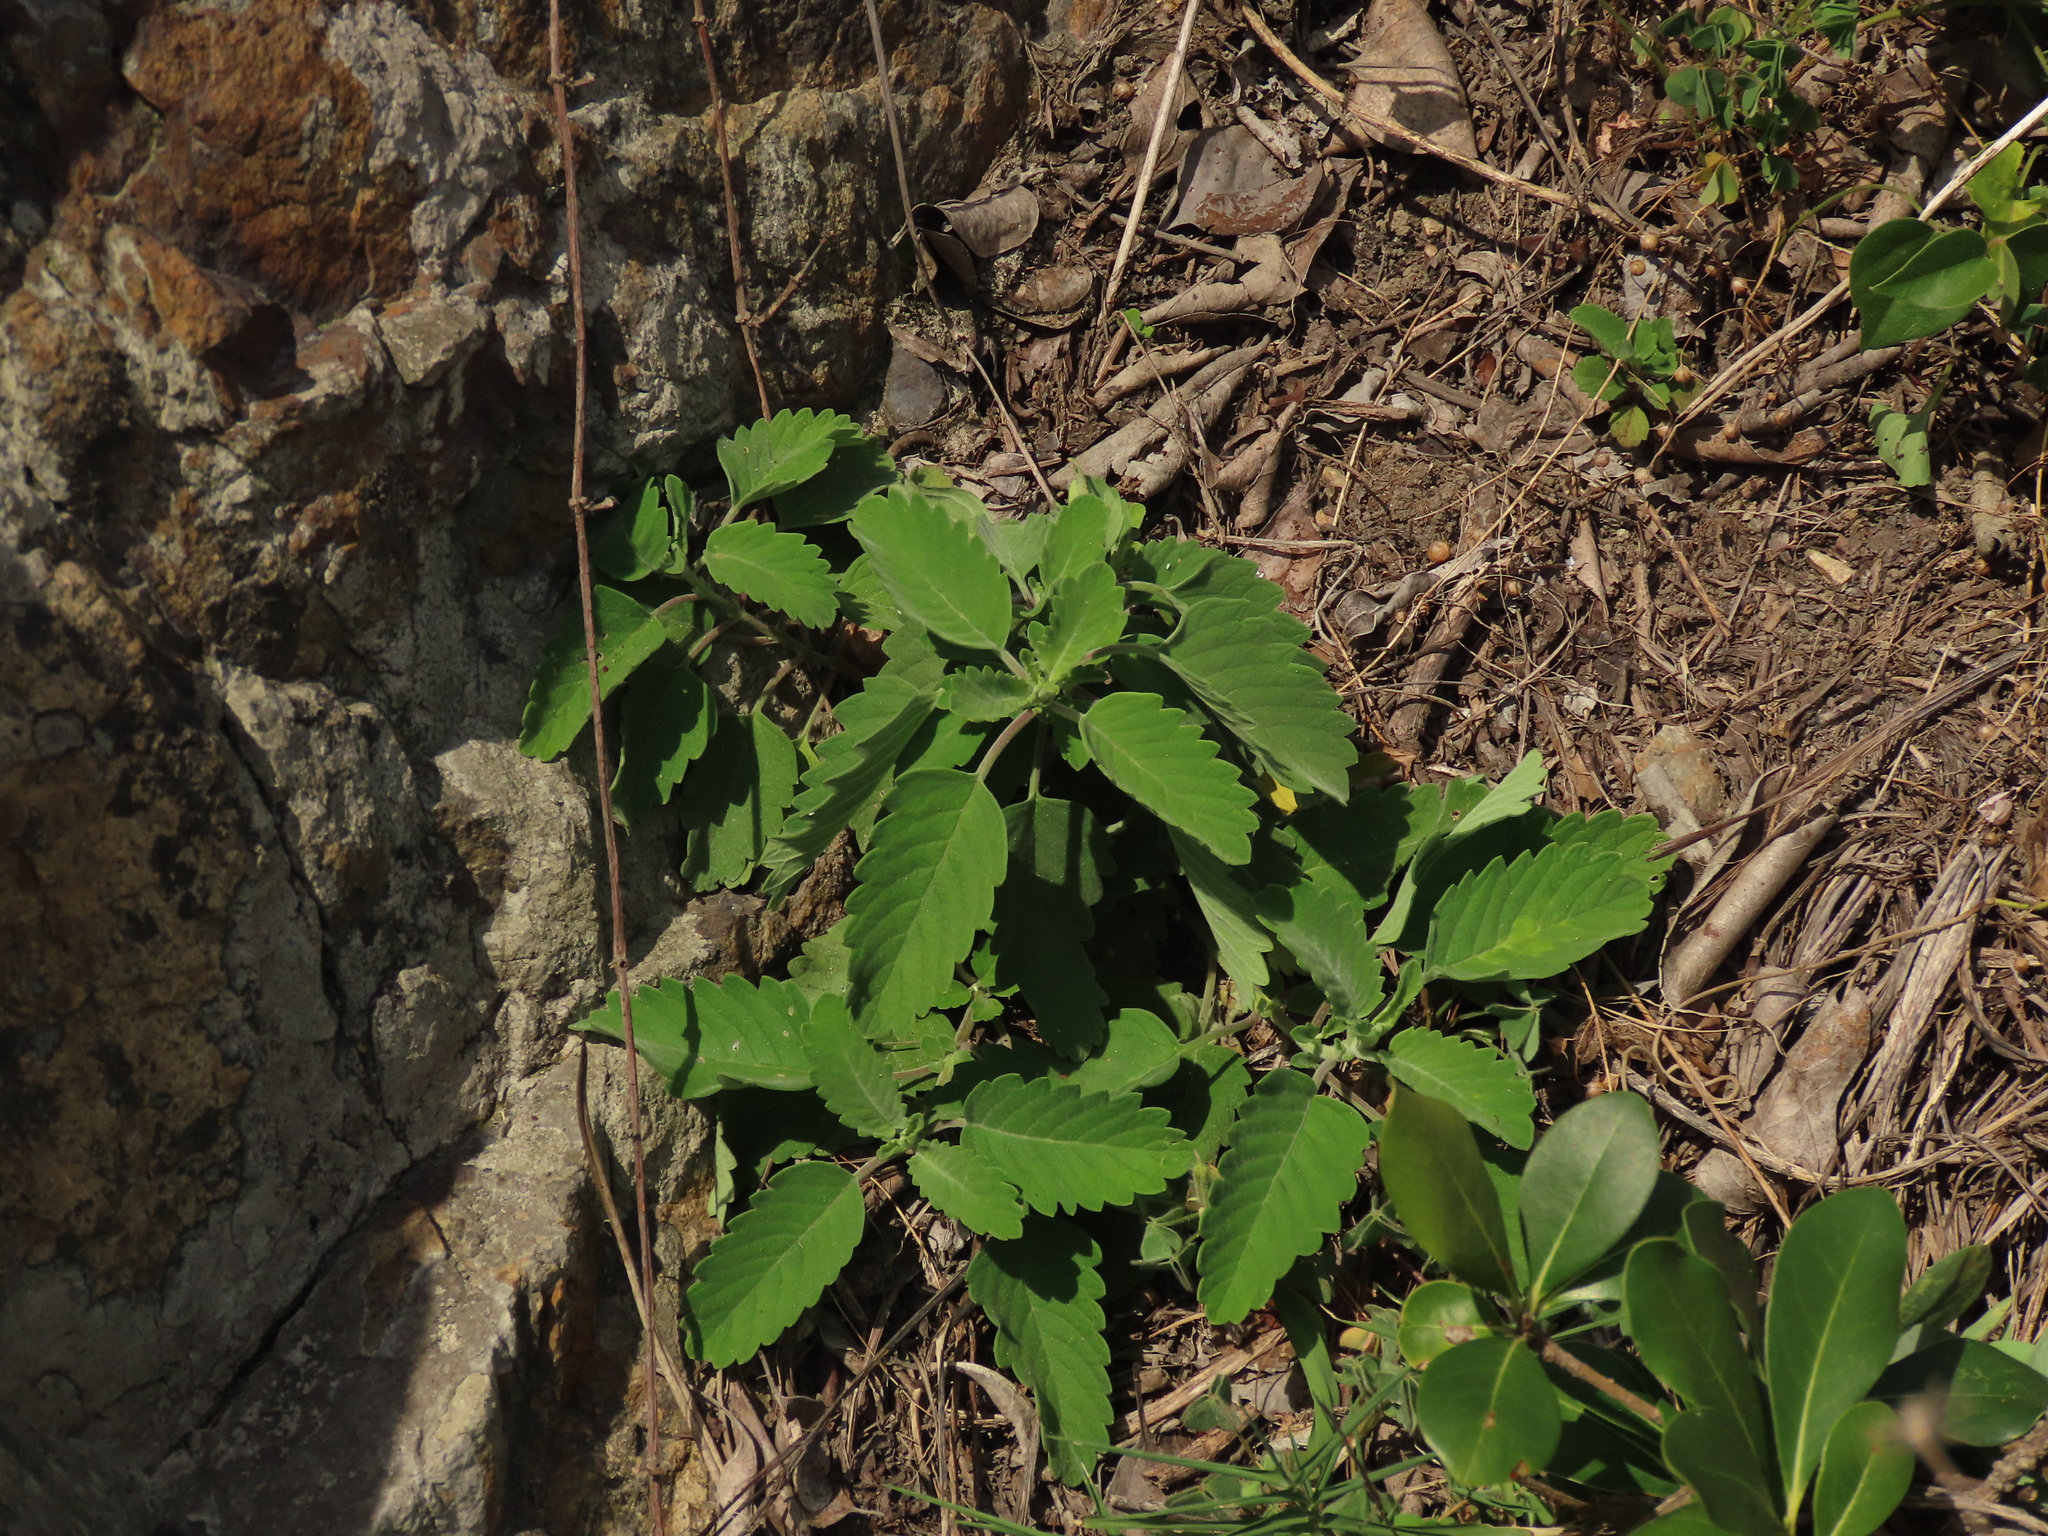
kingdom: Plantae
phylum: Tracheophyta
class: Magnoliopsida
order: Lamiales
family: Lamiaceae
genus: Caryopteris
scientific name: Caryopteris incana
